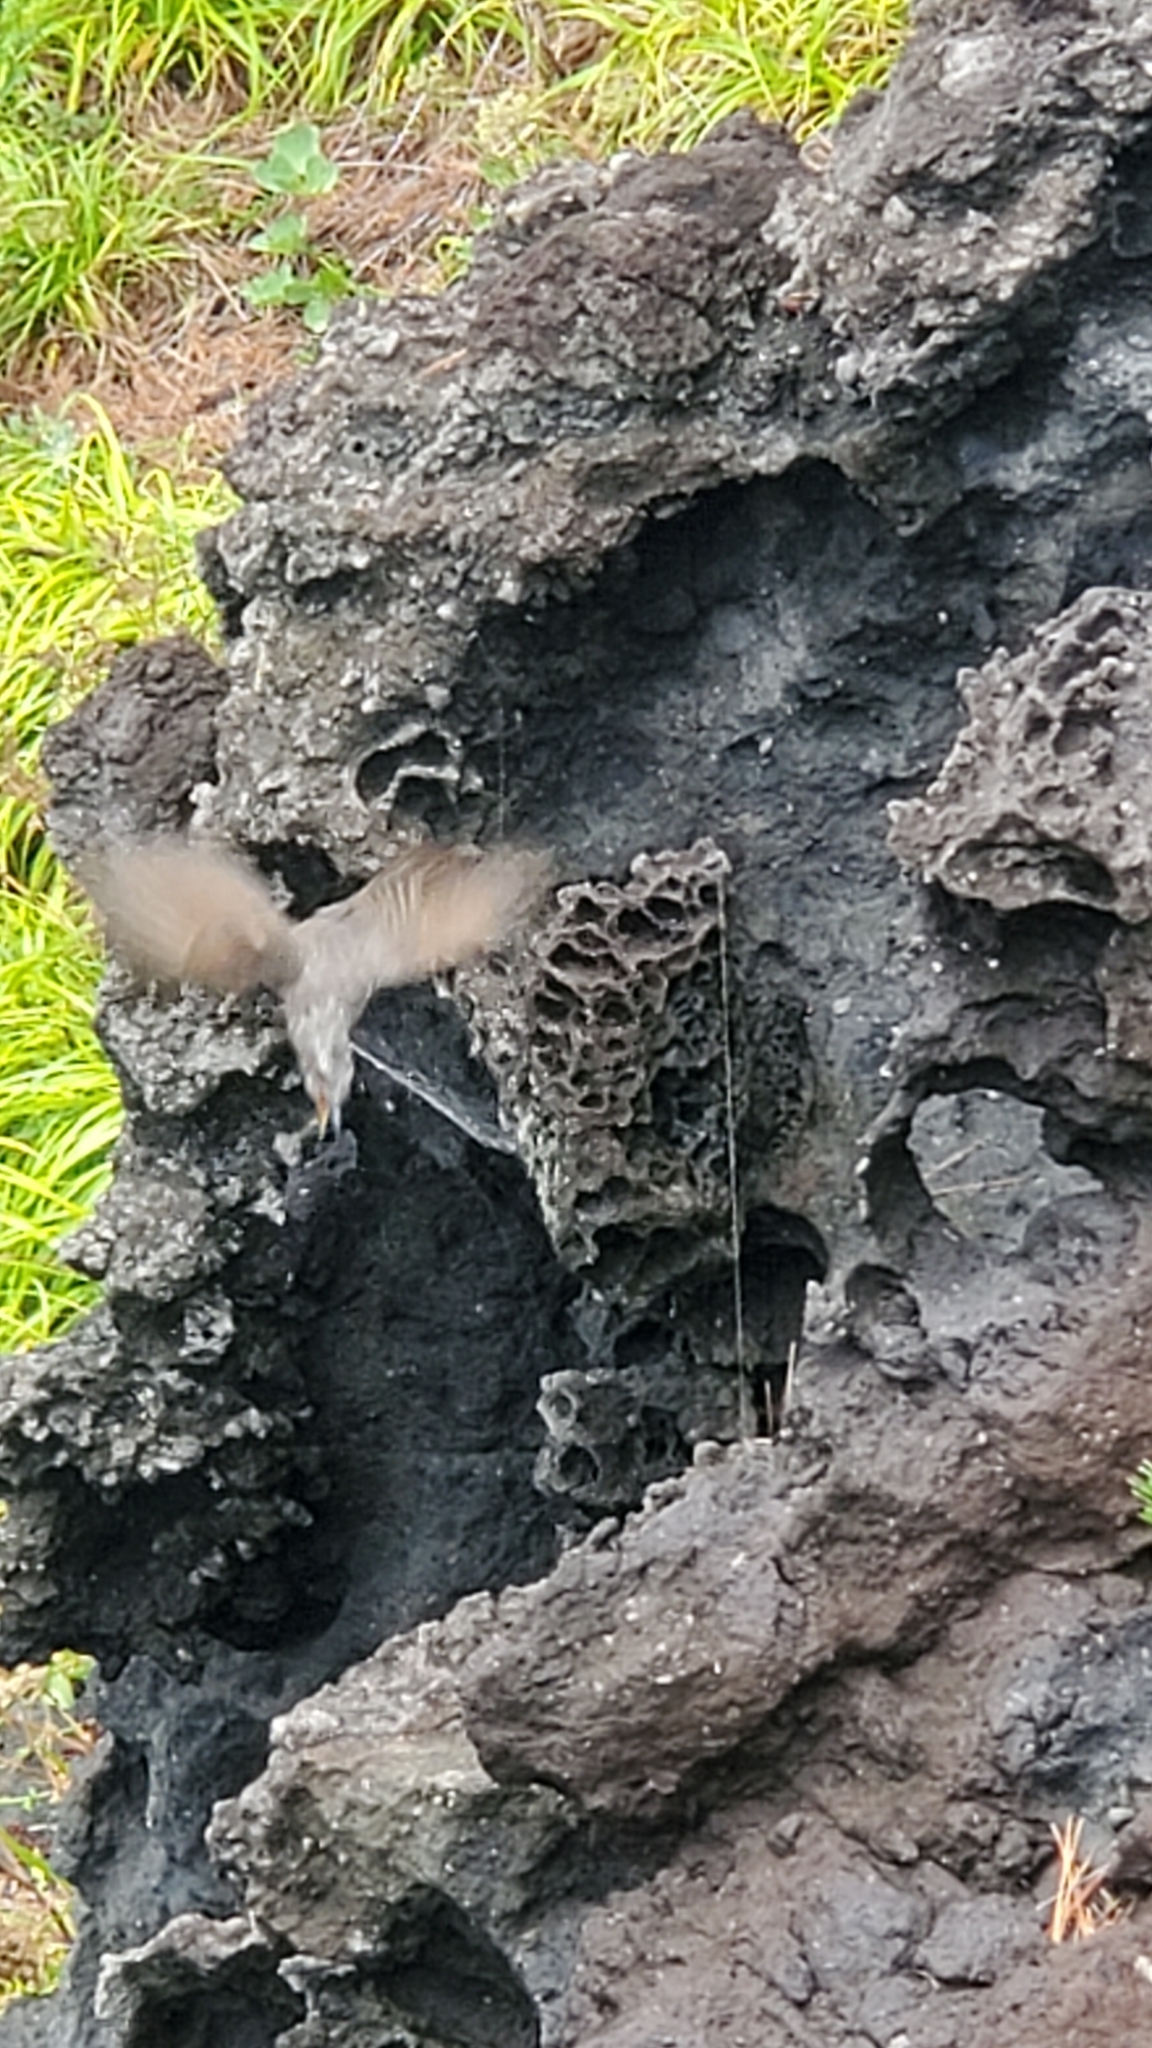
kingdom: Animalia
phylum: Chordata
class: Aves
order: Passeriformes
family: Pycnonotidae
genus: Hypsipetes
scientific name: Hypsipetes amaurotis
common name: Brown-eared bulbul
